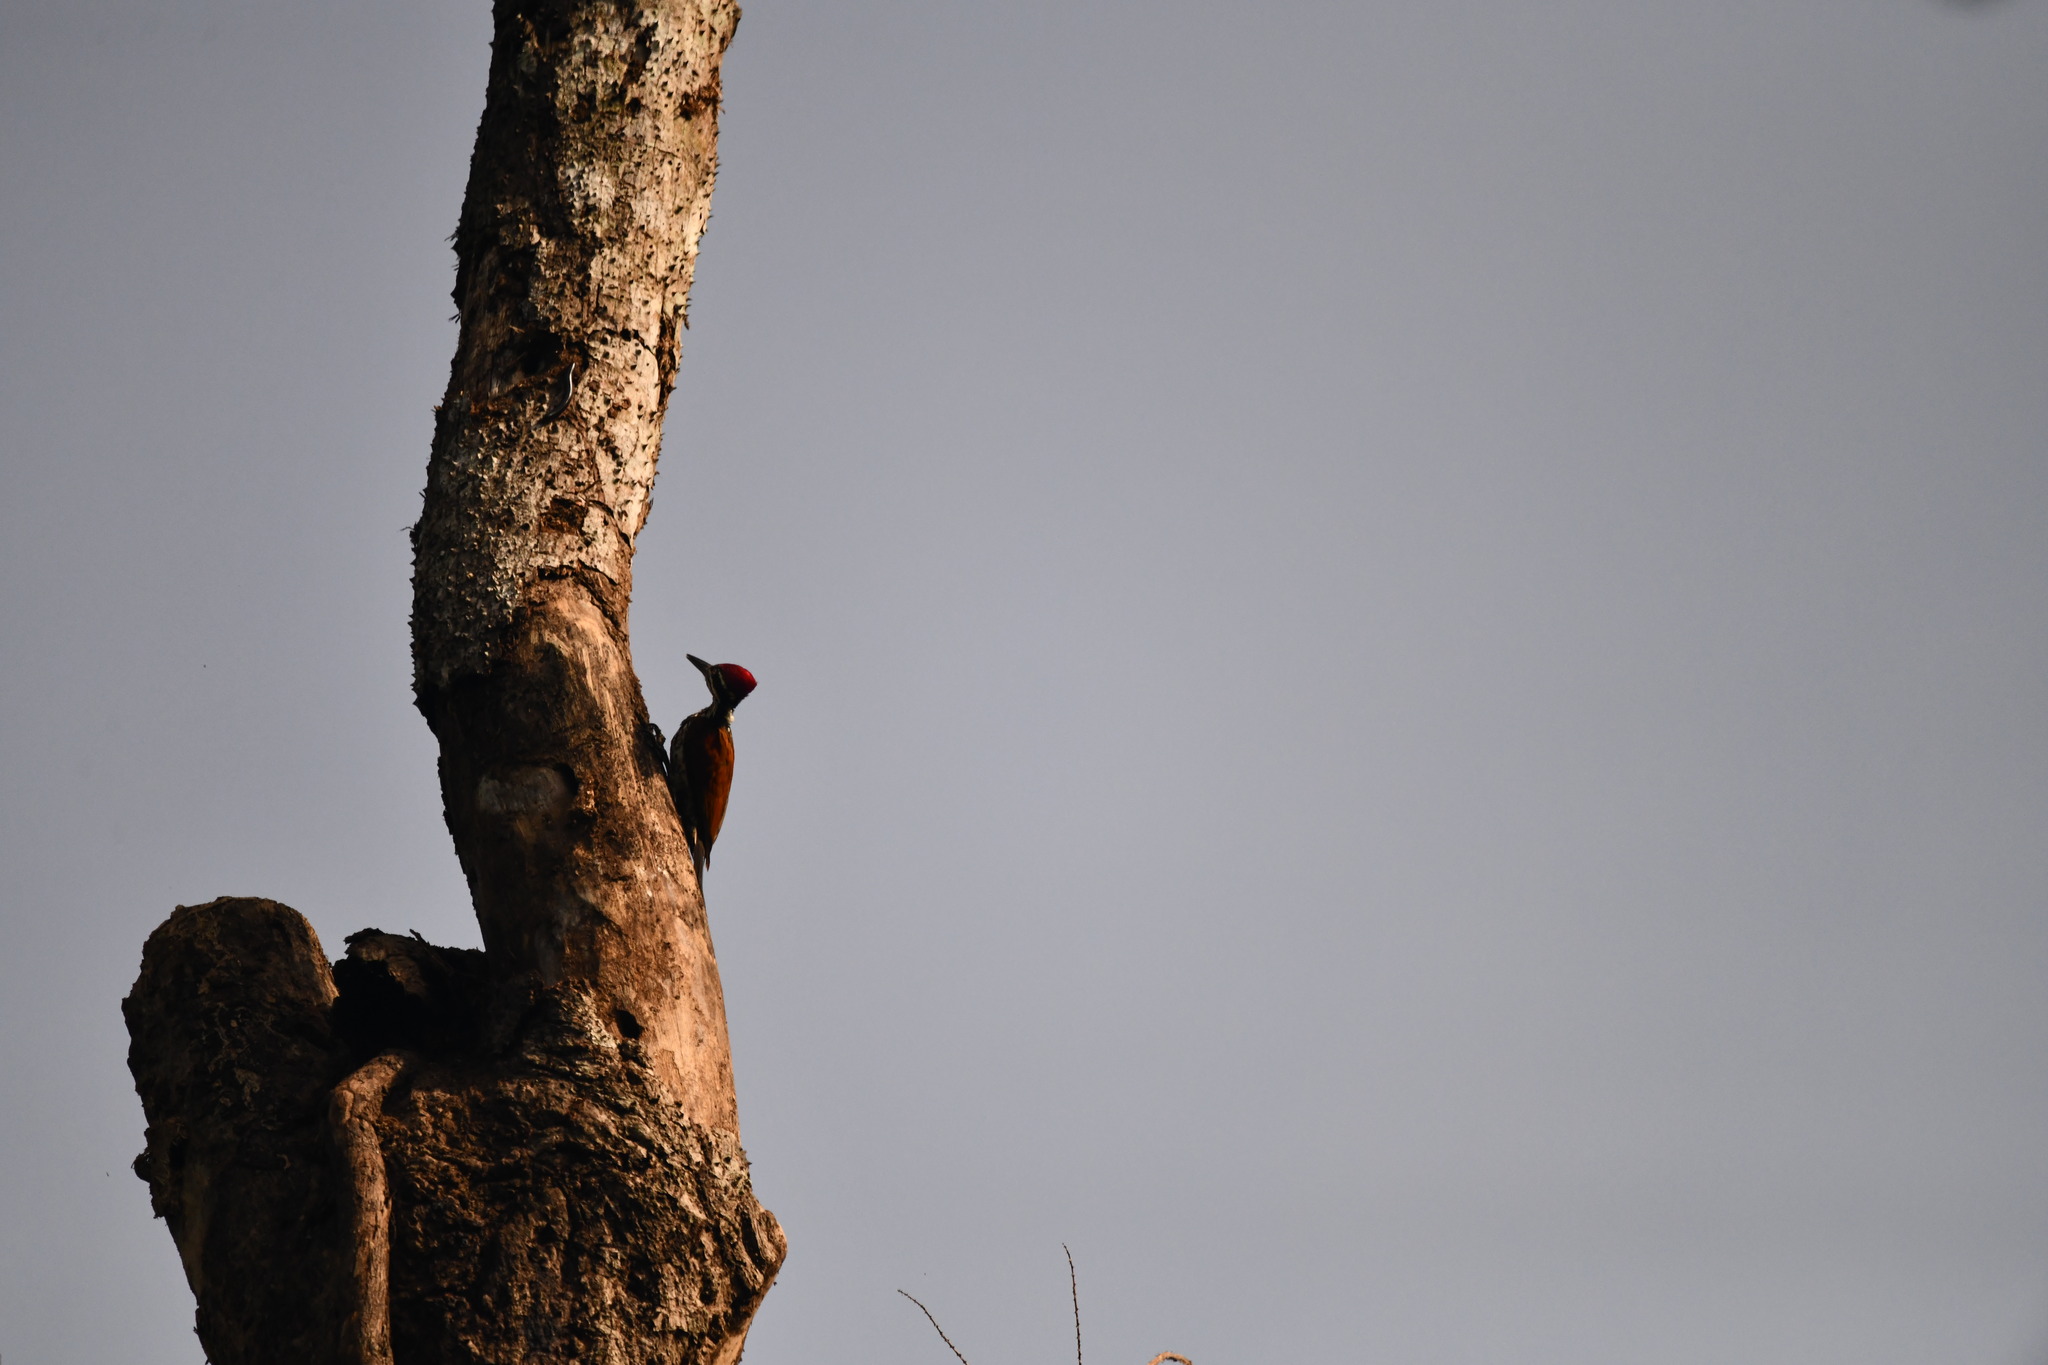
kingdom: Animalia
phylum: Chordata
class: Aves
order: Piciformes
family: Picidae
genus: Chrysocolaptes
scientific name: Chrysocolaptes socialis
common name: Malabar flameback
